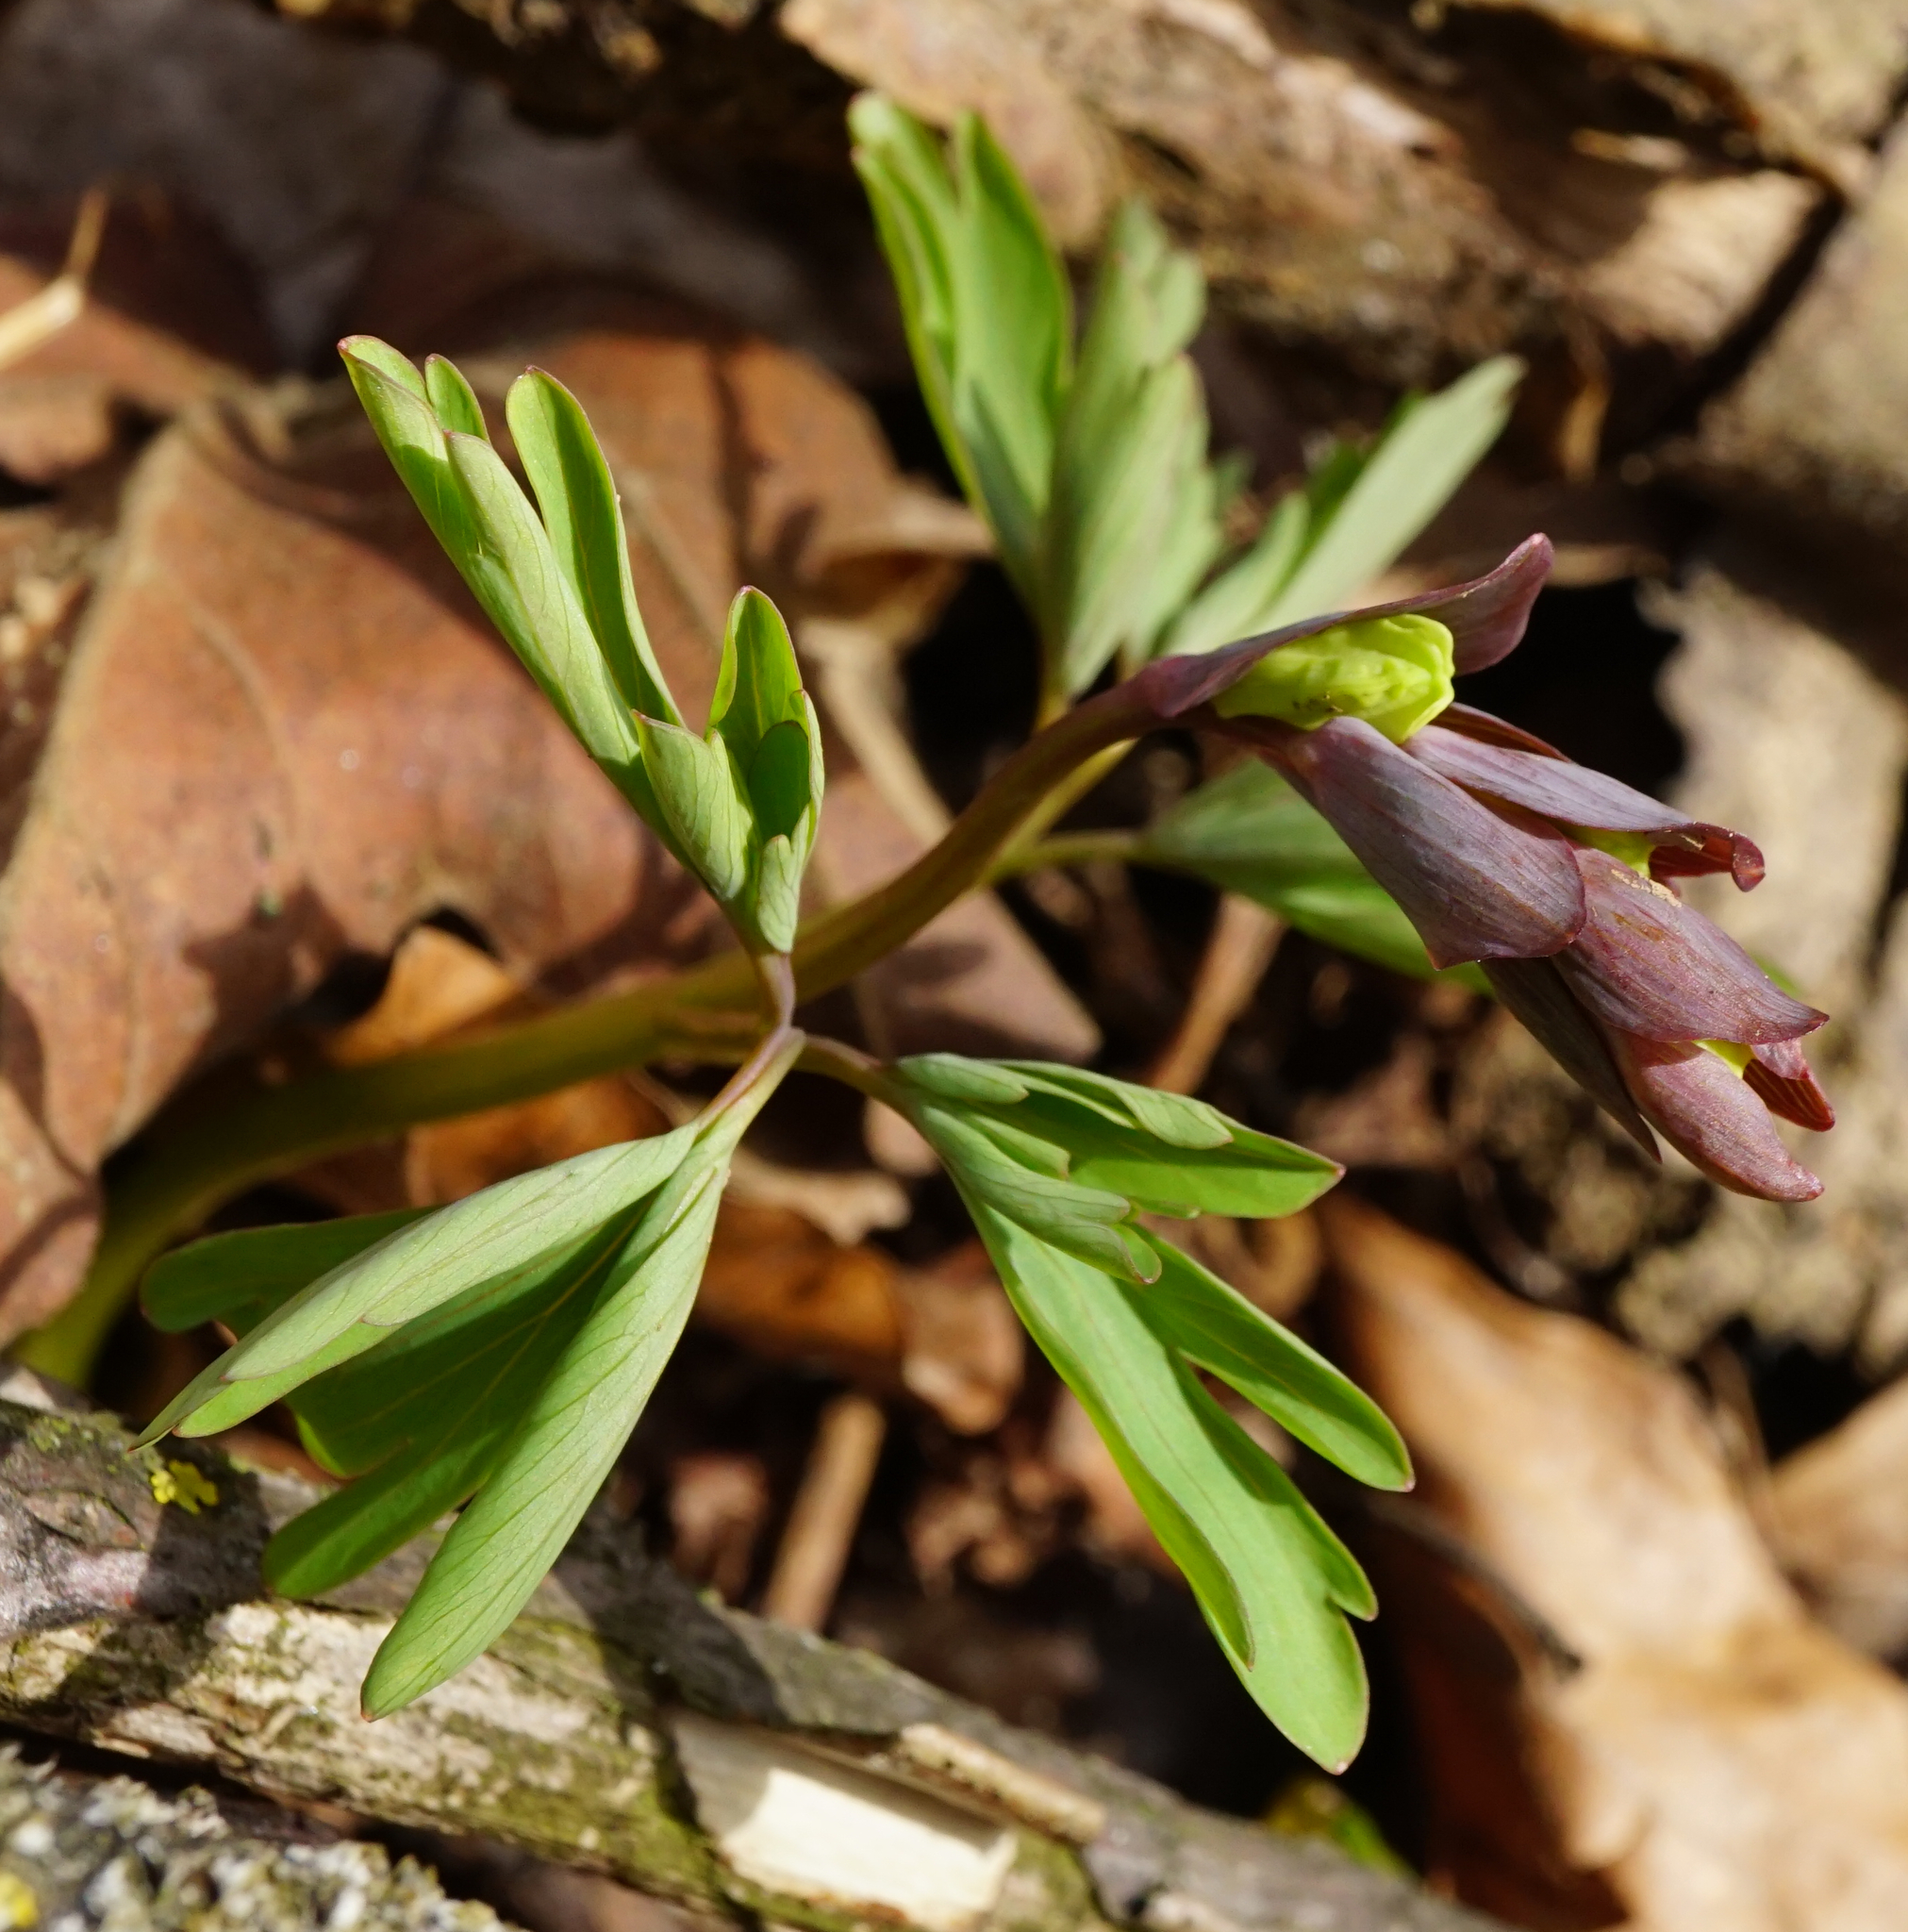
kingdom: Plantae
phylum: Tracheophyta
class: Magnoliopsida
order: Ranunculales
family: Papaveraceae
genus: Corydalis
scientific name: Corydalis cava
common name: Hollowroot
